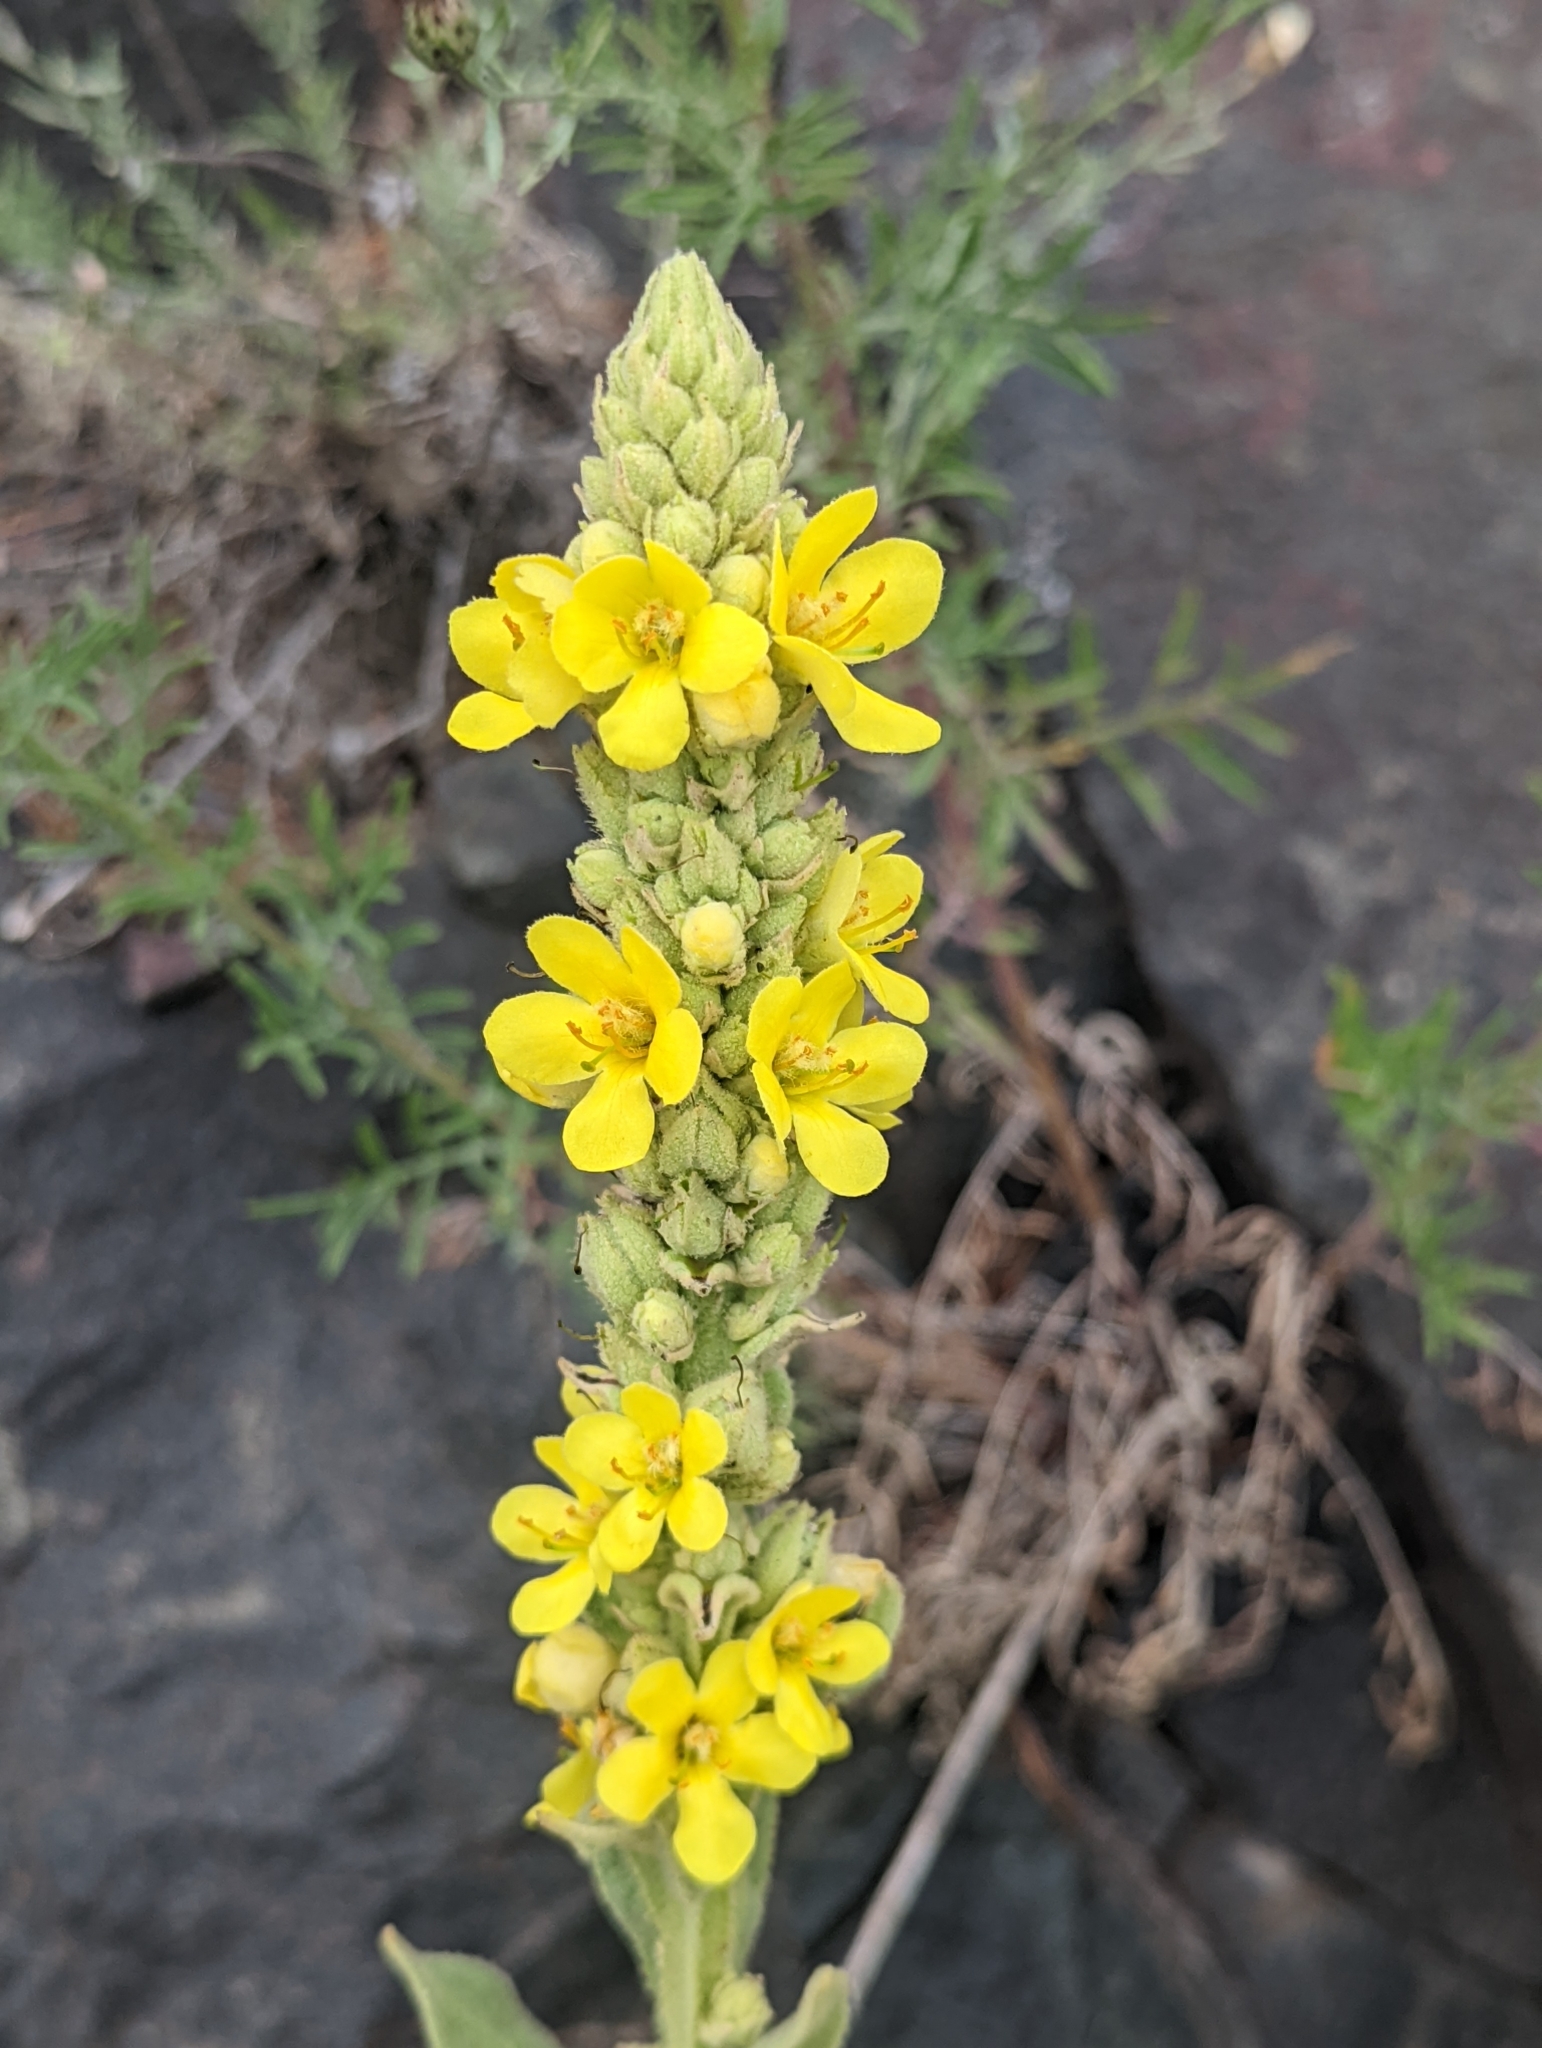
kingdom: Plantae
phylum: Tracheophyta
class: Magnoliopsida
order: Lamiales
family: Scrophulariaceae
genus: Verbascum
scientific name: Verbascum thapsus
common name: Common mullein
